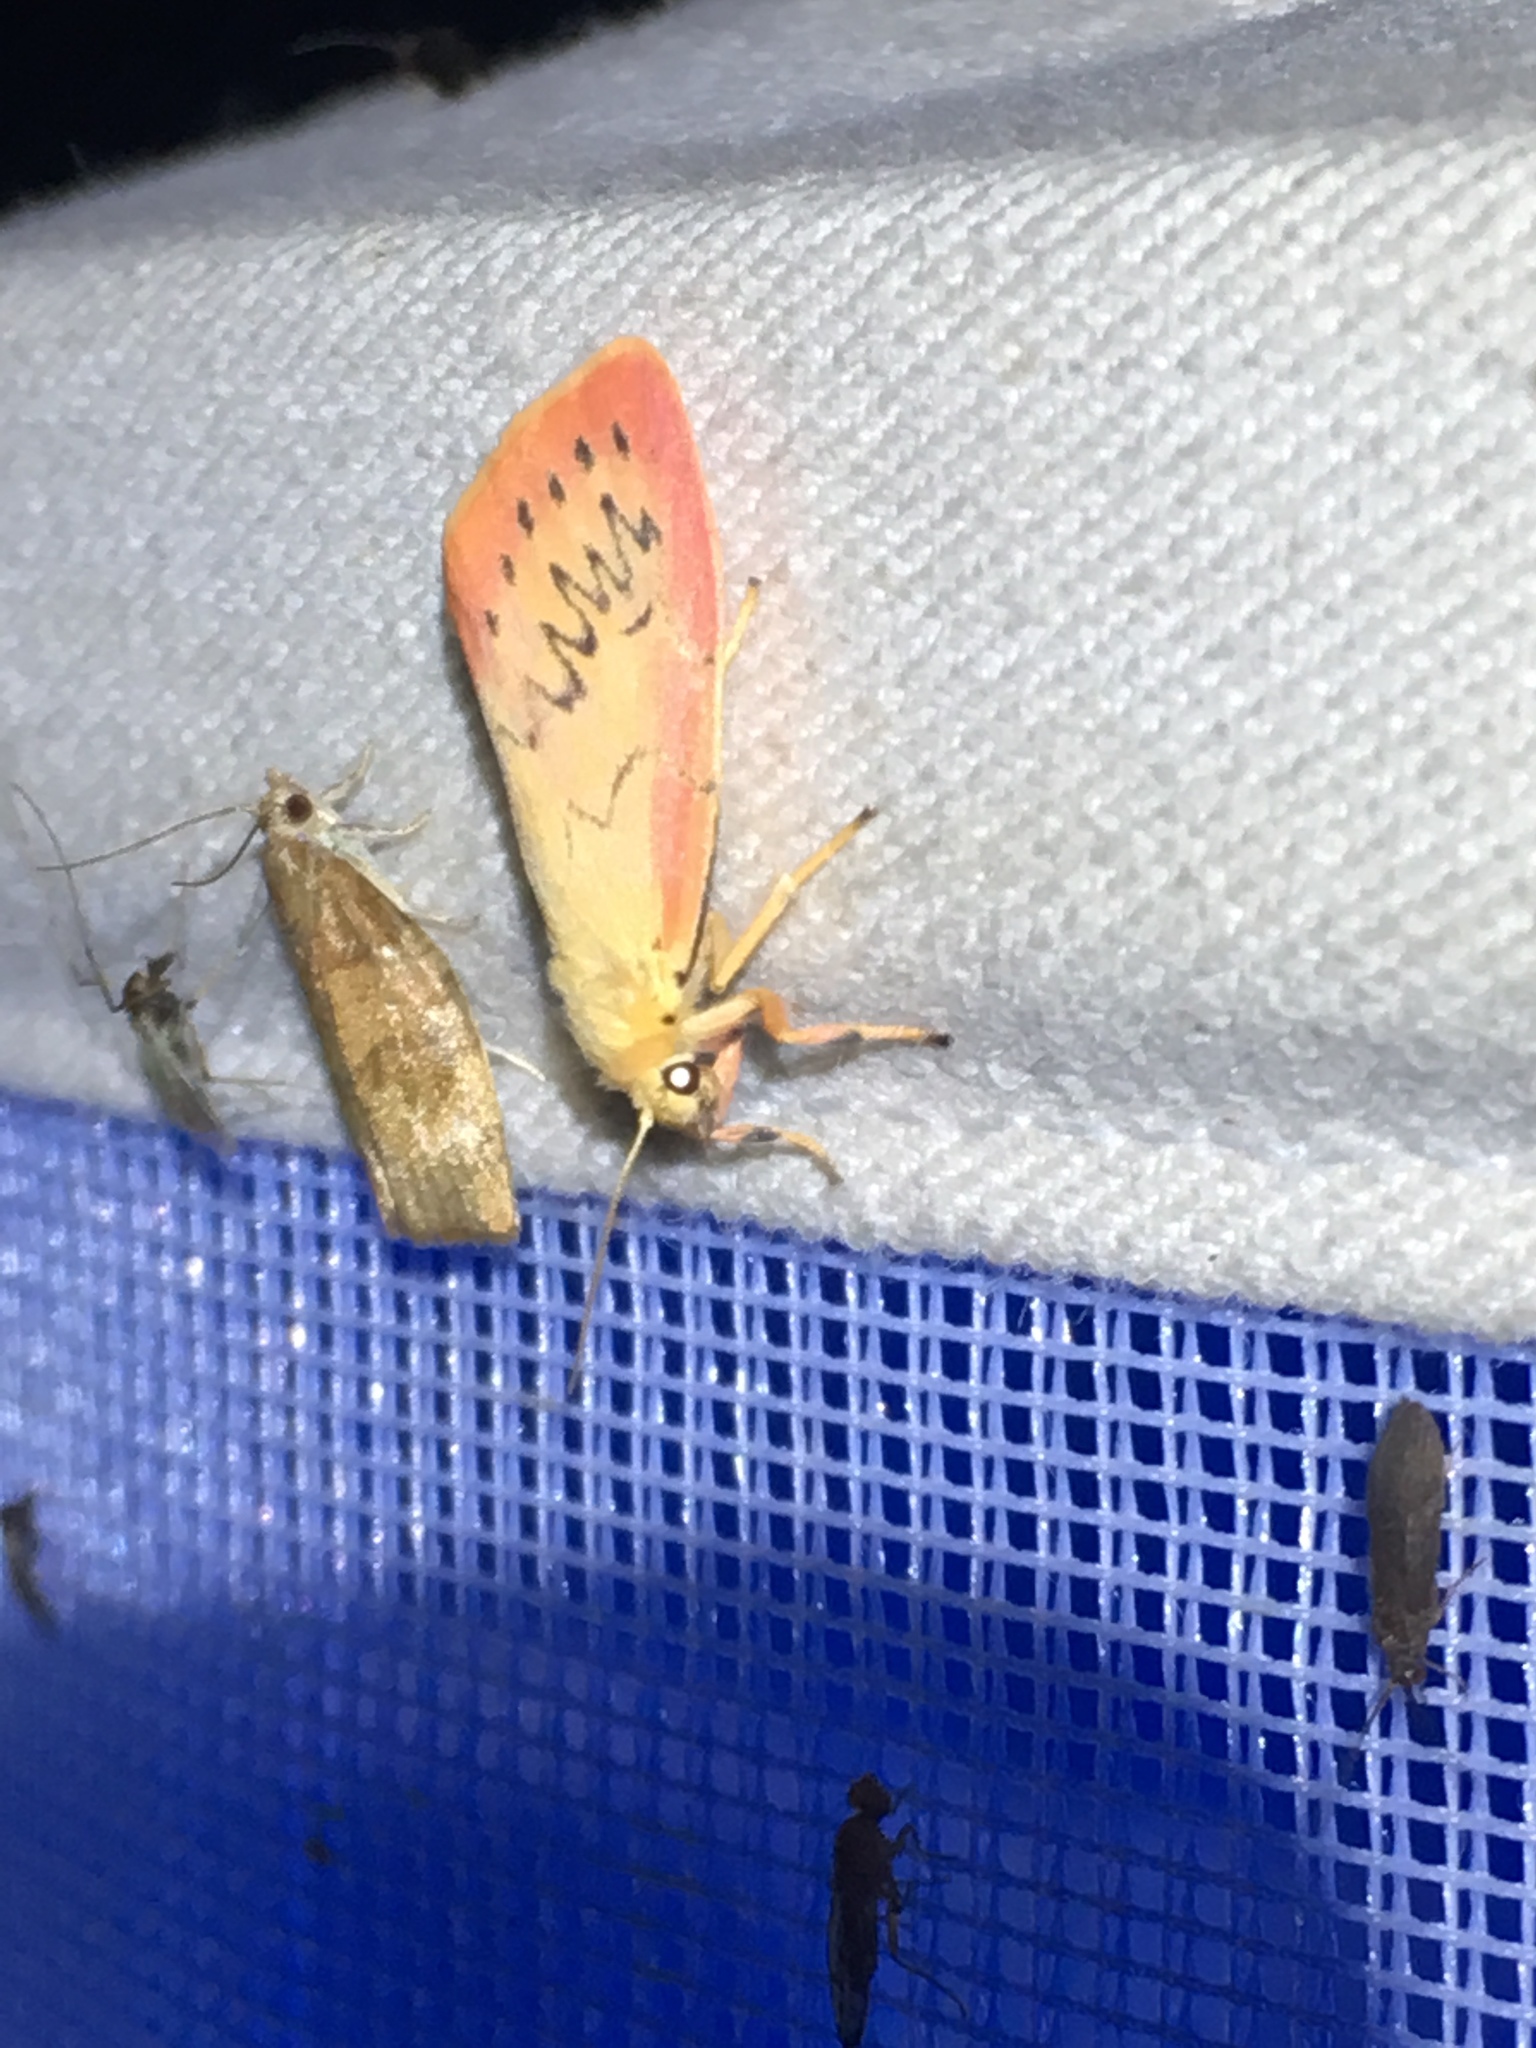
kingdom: Animalia
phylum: Arthropoda
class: Insecta
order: Lepidoptera
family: Erebidae
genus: Miltochrista
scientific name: Miltochrista miniata
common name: Rosy footman
